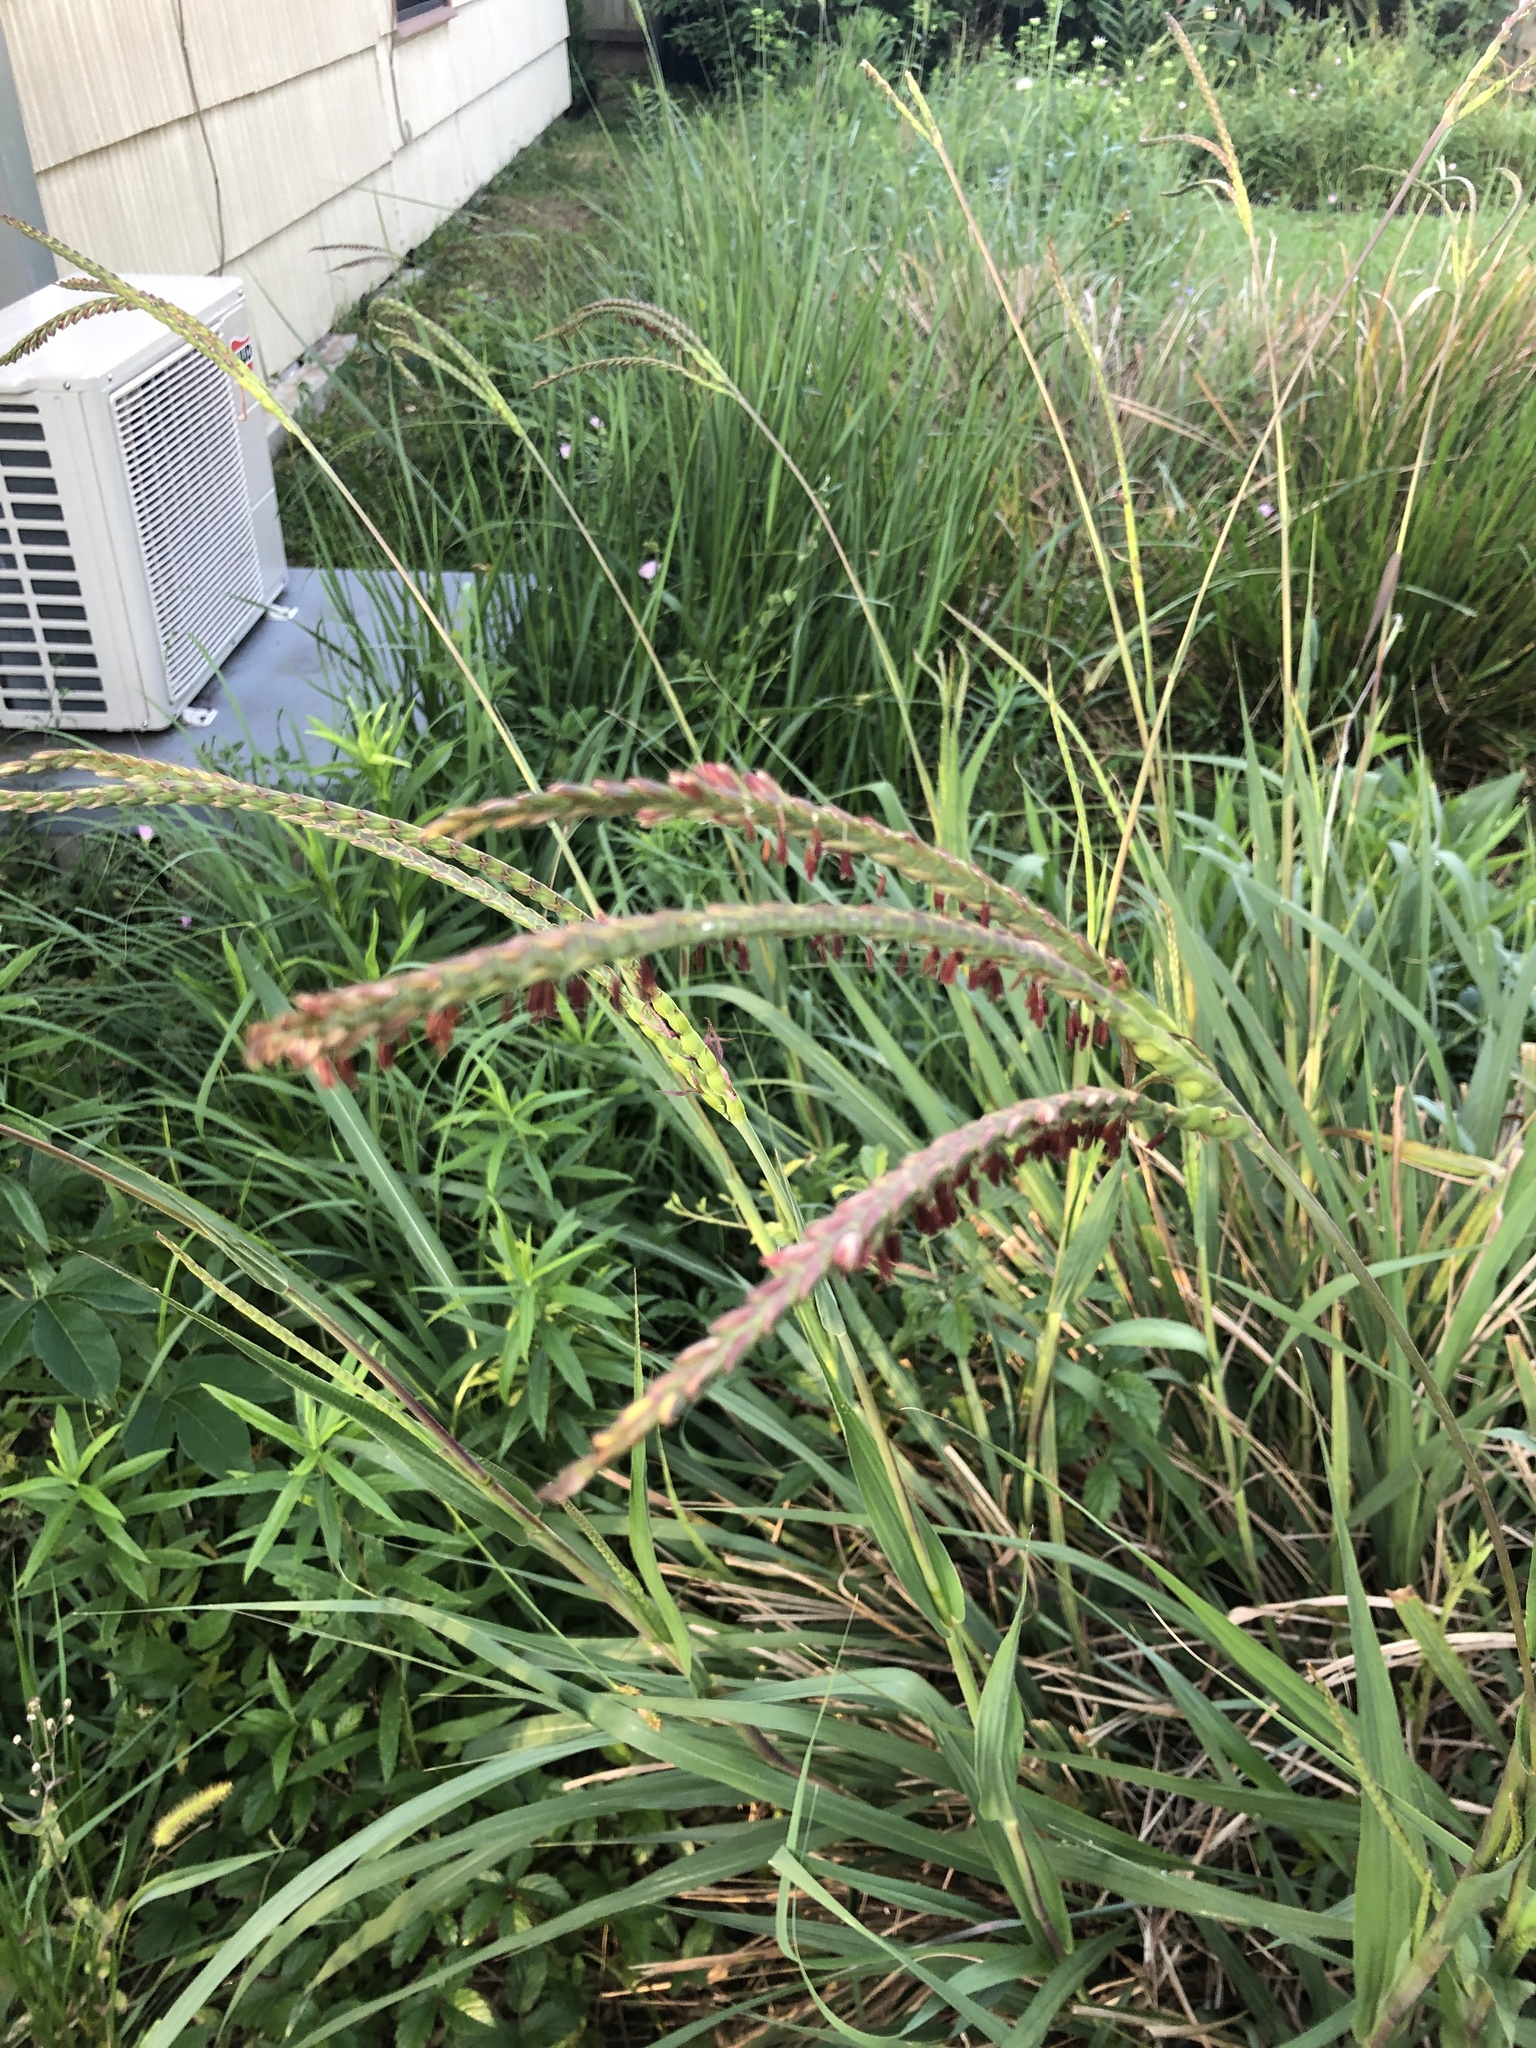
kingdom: Plantae
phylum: Tracheophyta
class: Liliopsida
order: Poales
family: Poaceae
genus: Tripsacum
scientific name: Tripsacum dactyloides
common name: Buffalo-grass
